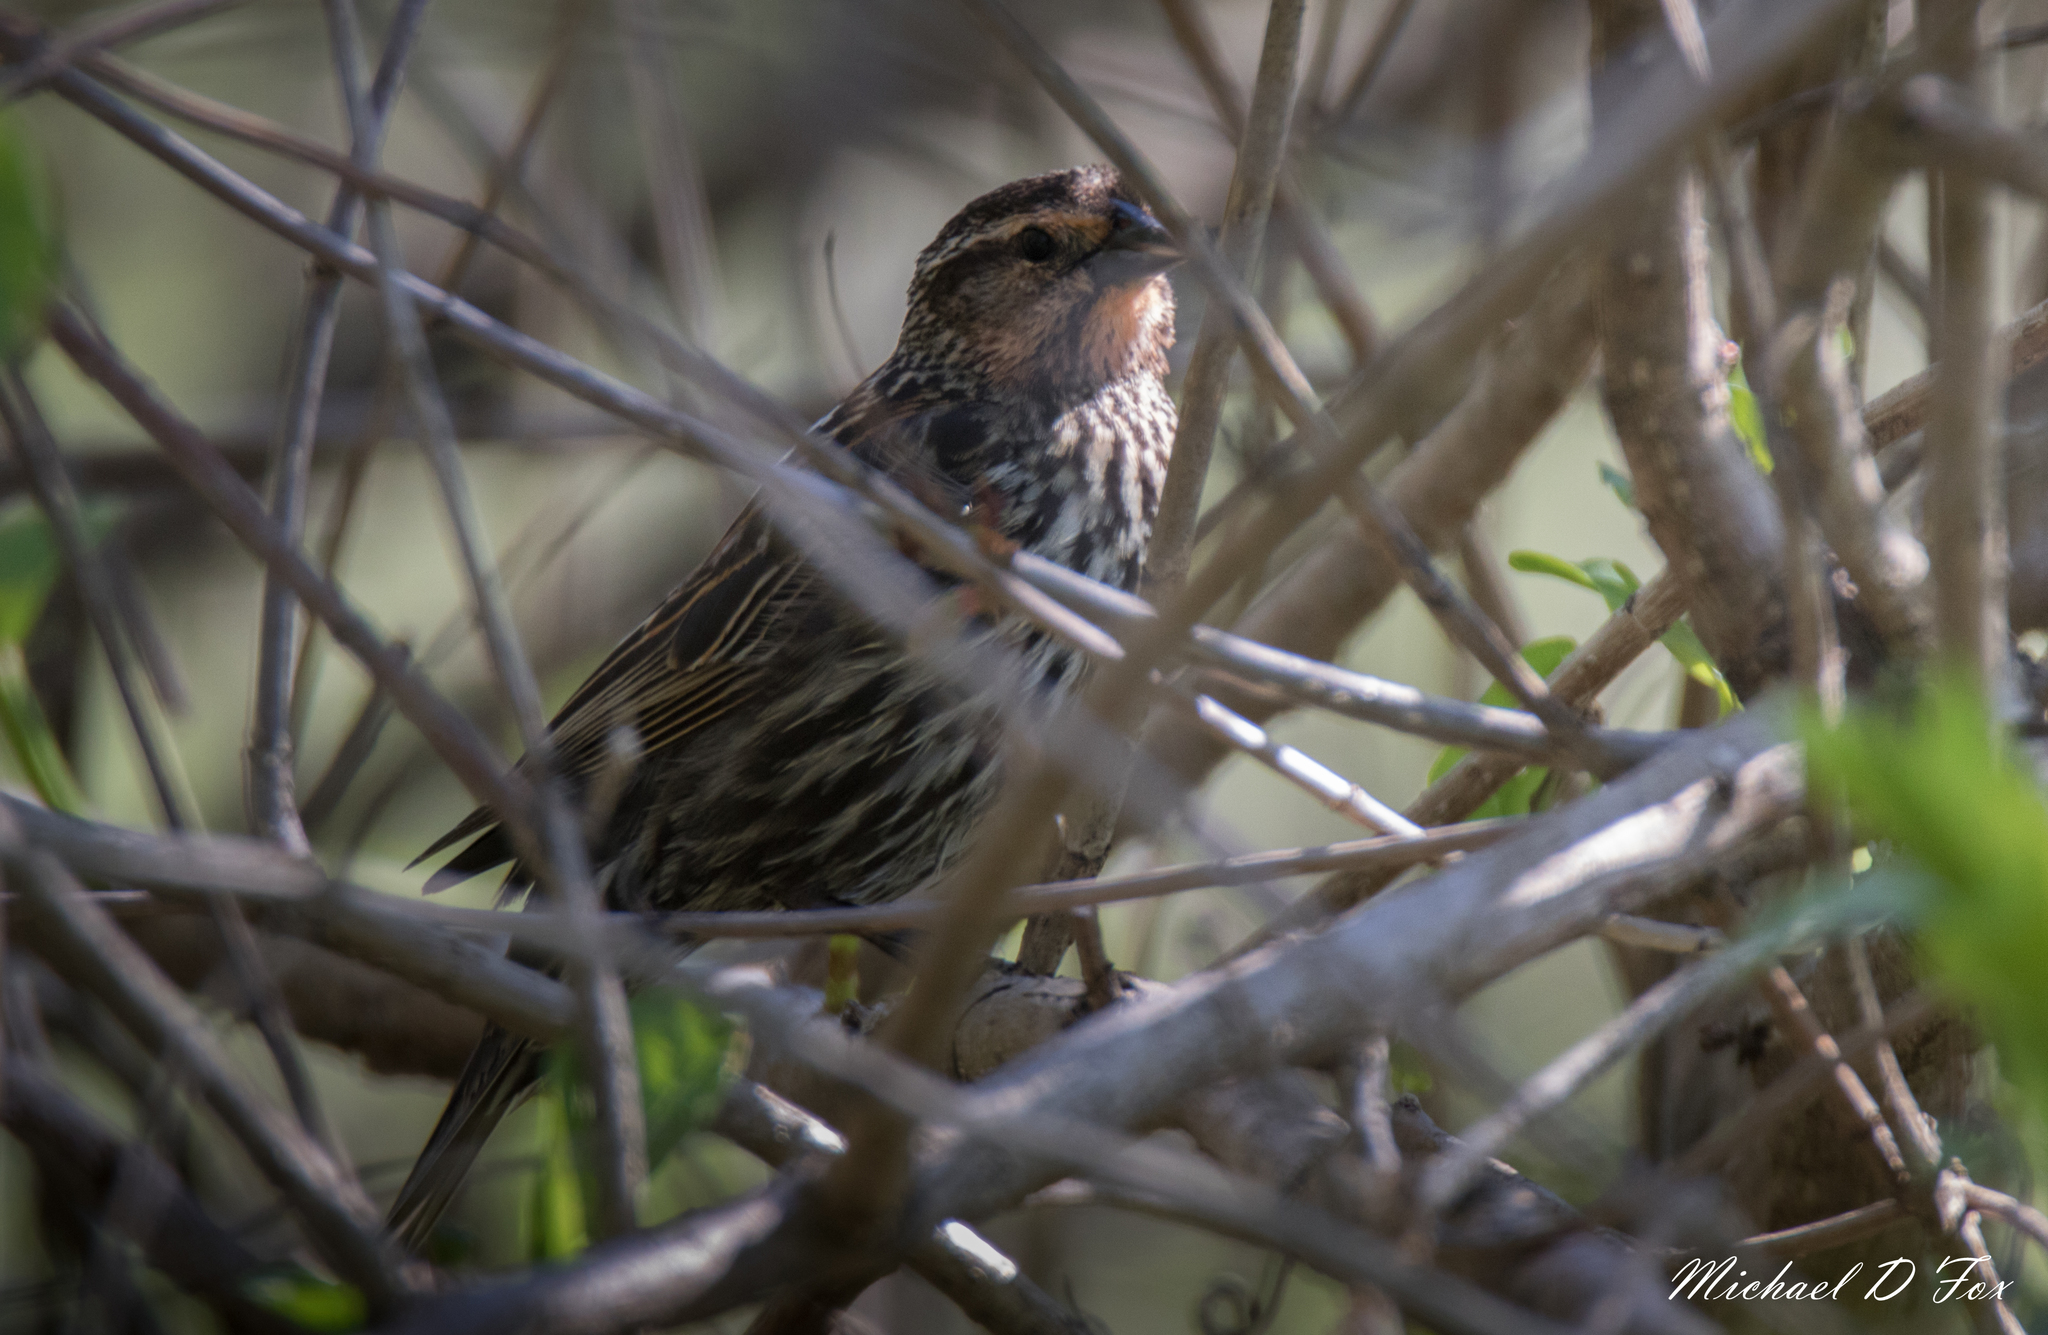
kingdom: Animalia
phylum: Chordata
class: Aves
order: Passeriformes
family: Icteridae
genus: Agelaius
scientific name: Agelaius phoeniceus
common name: Red-winged blackbird
